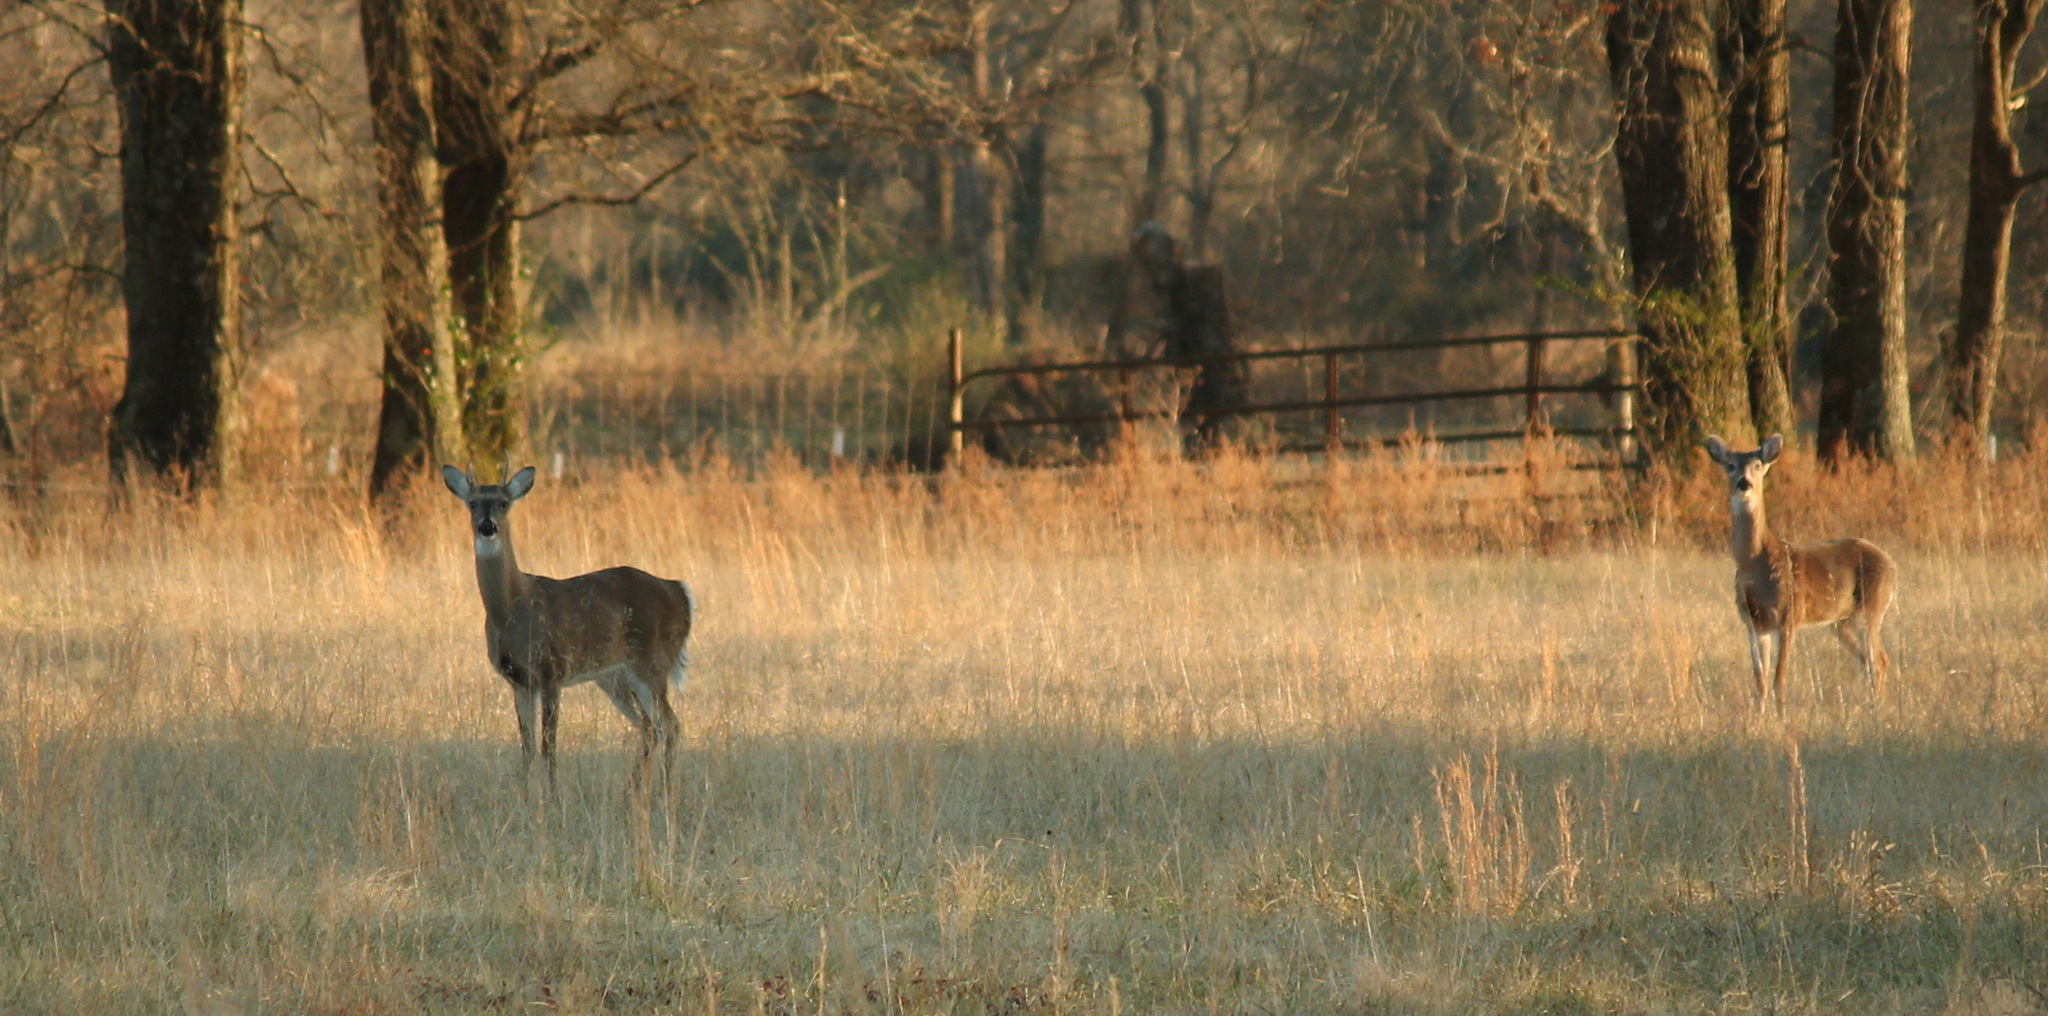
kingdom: Animalia
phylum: Chordata
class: Mammalia
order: Artiodactyla
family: Cervidae
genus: Odocoileus
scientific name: Odocoileus virginianus
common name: White-tailed deer
